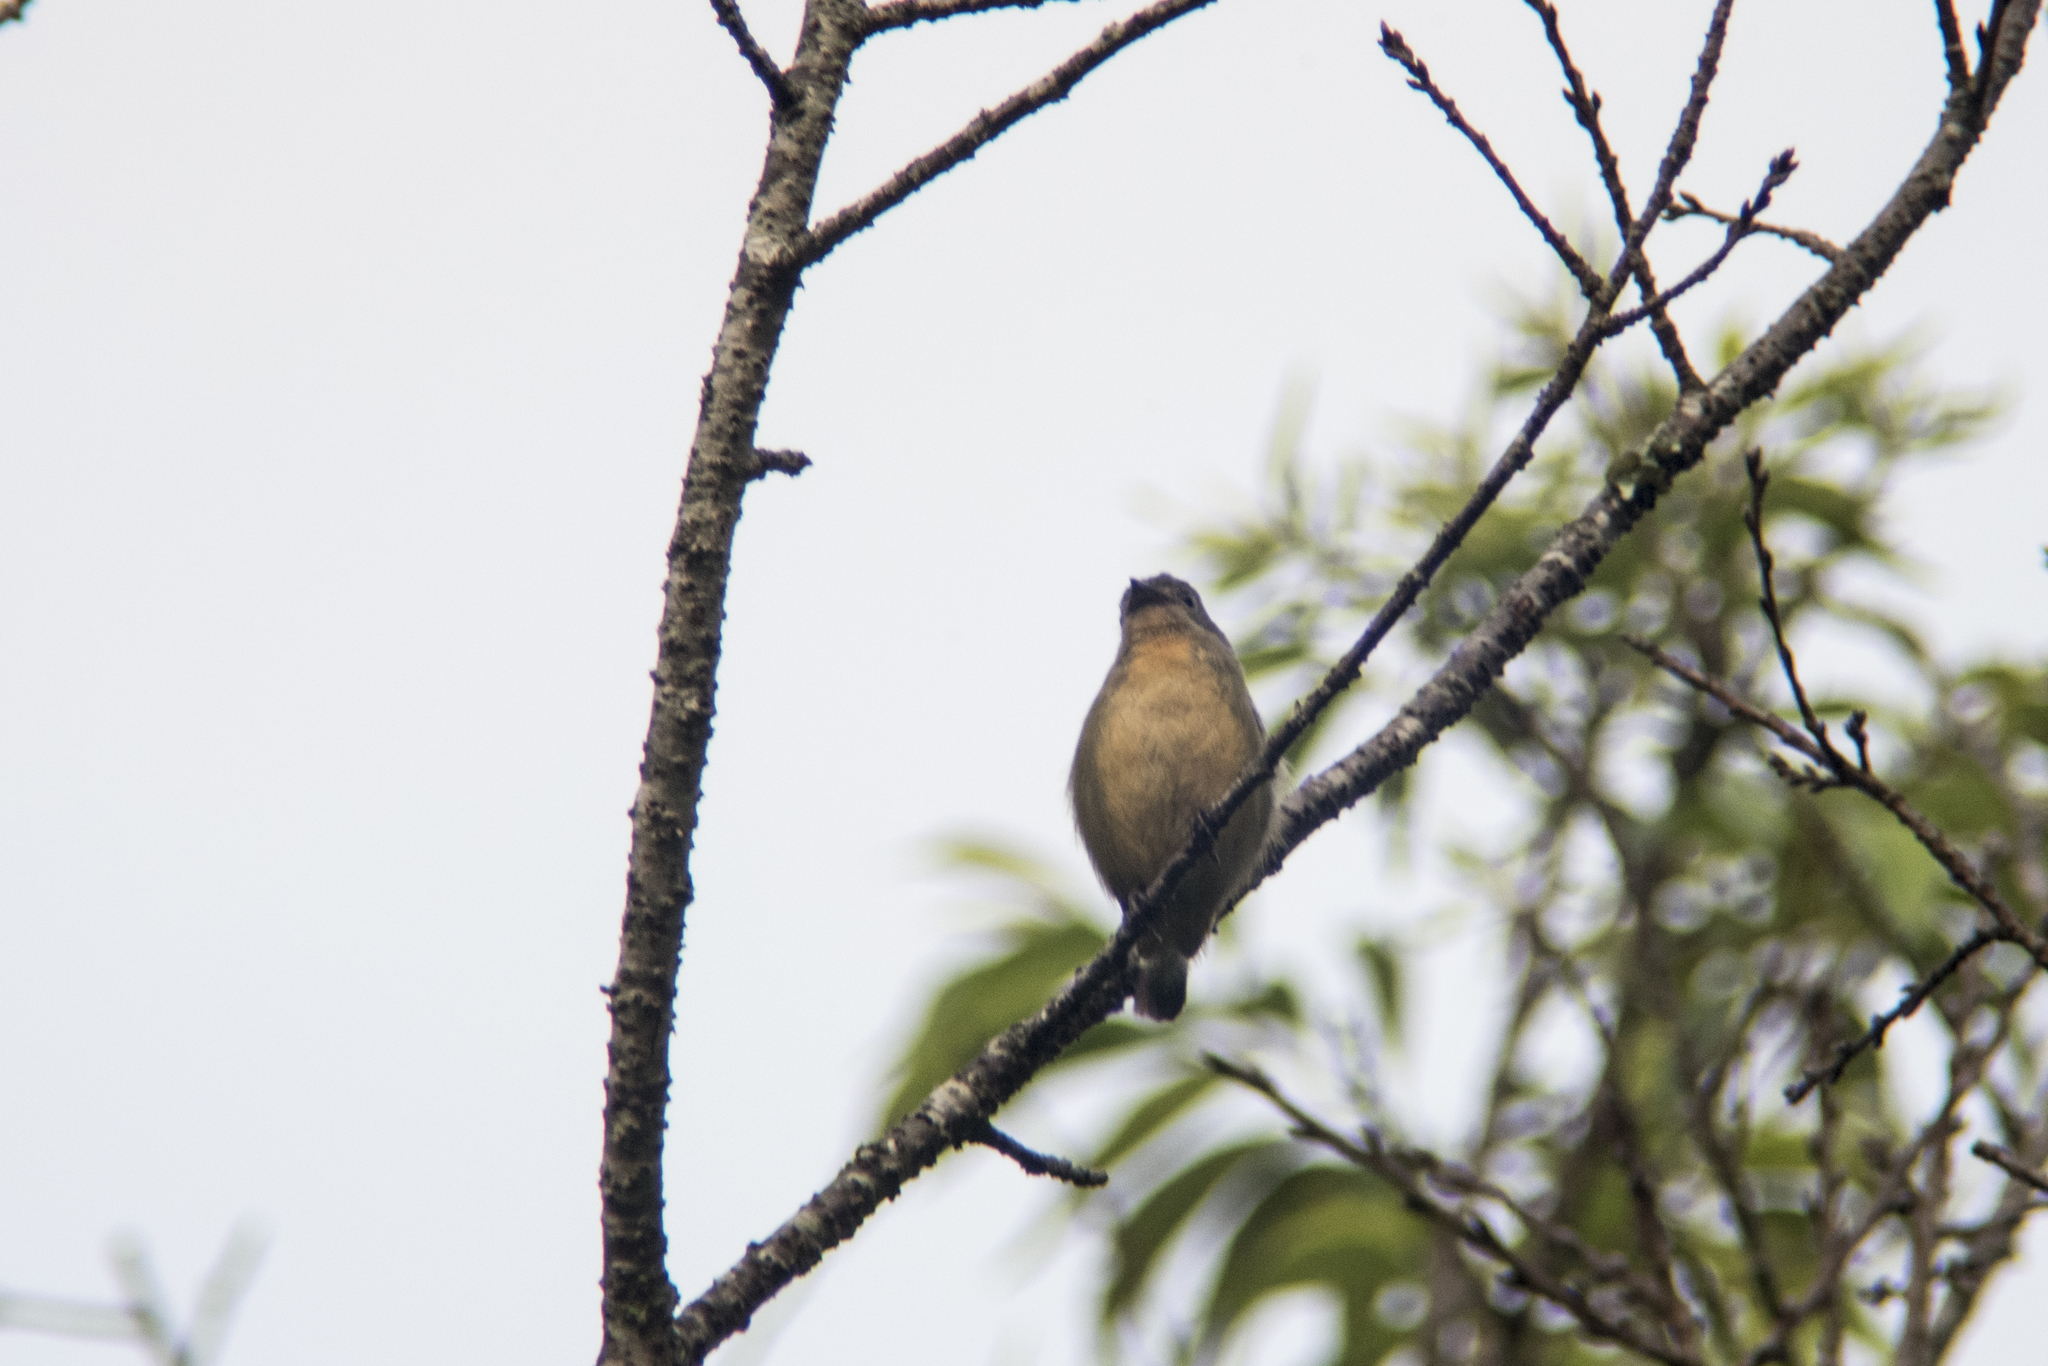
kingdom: Animalia
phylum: Chordata
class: Aves
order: Passeriformes
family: Dicaeidae
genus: Dicaeum
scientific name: Dicaeum ignipectus
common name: Fire-breasted flowerpecker
